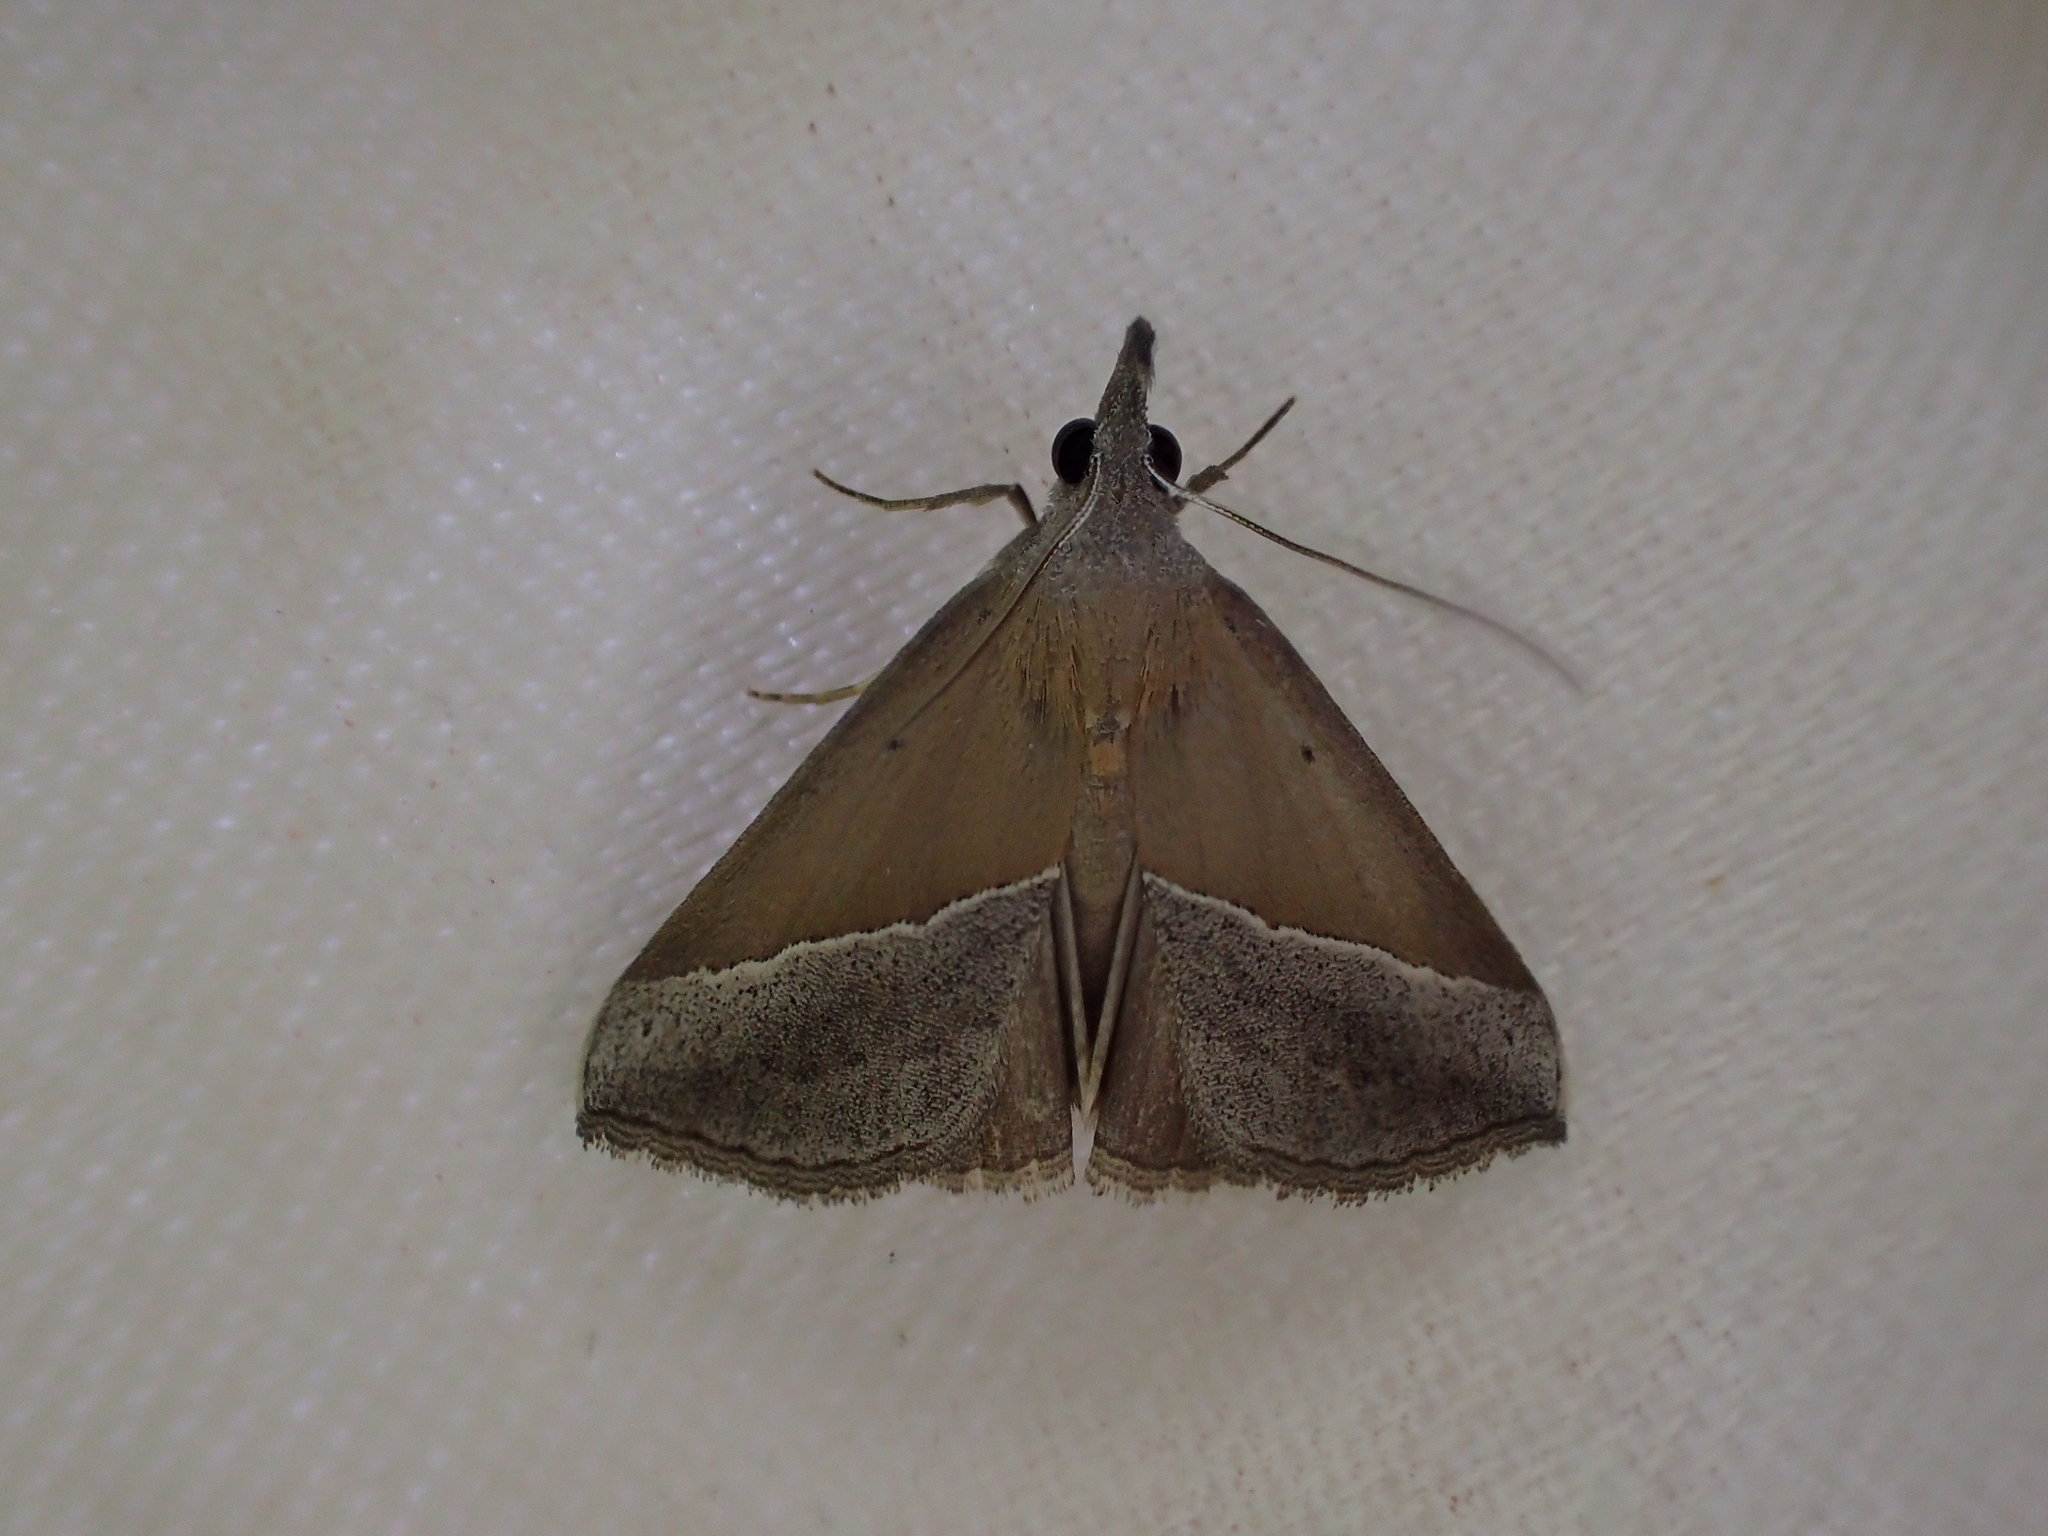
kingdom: Animalia
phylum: Arthropoda
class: Insecta
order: Lepidoptera
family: Erebidae
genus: Hypena
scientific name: Hypena lividalis
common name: Chevron snout
